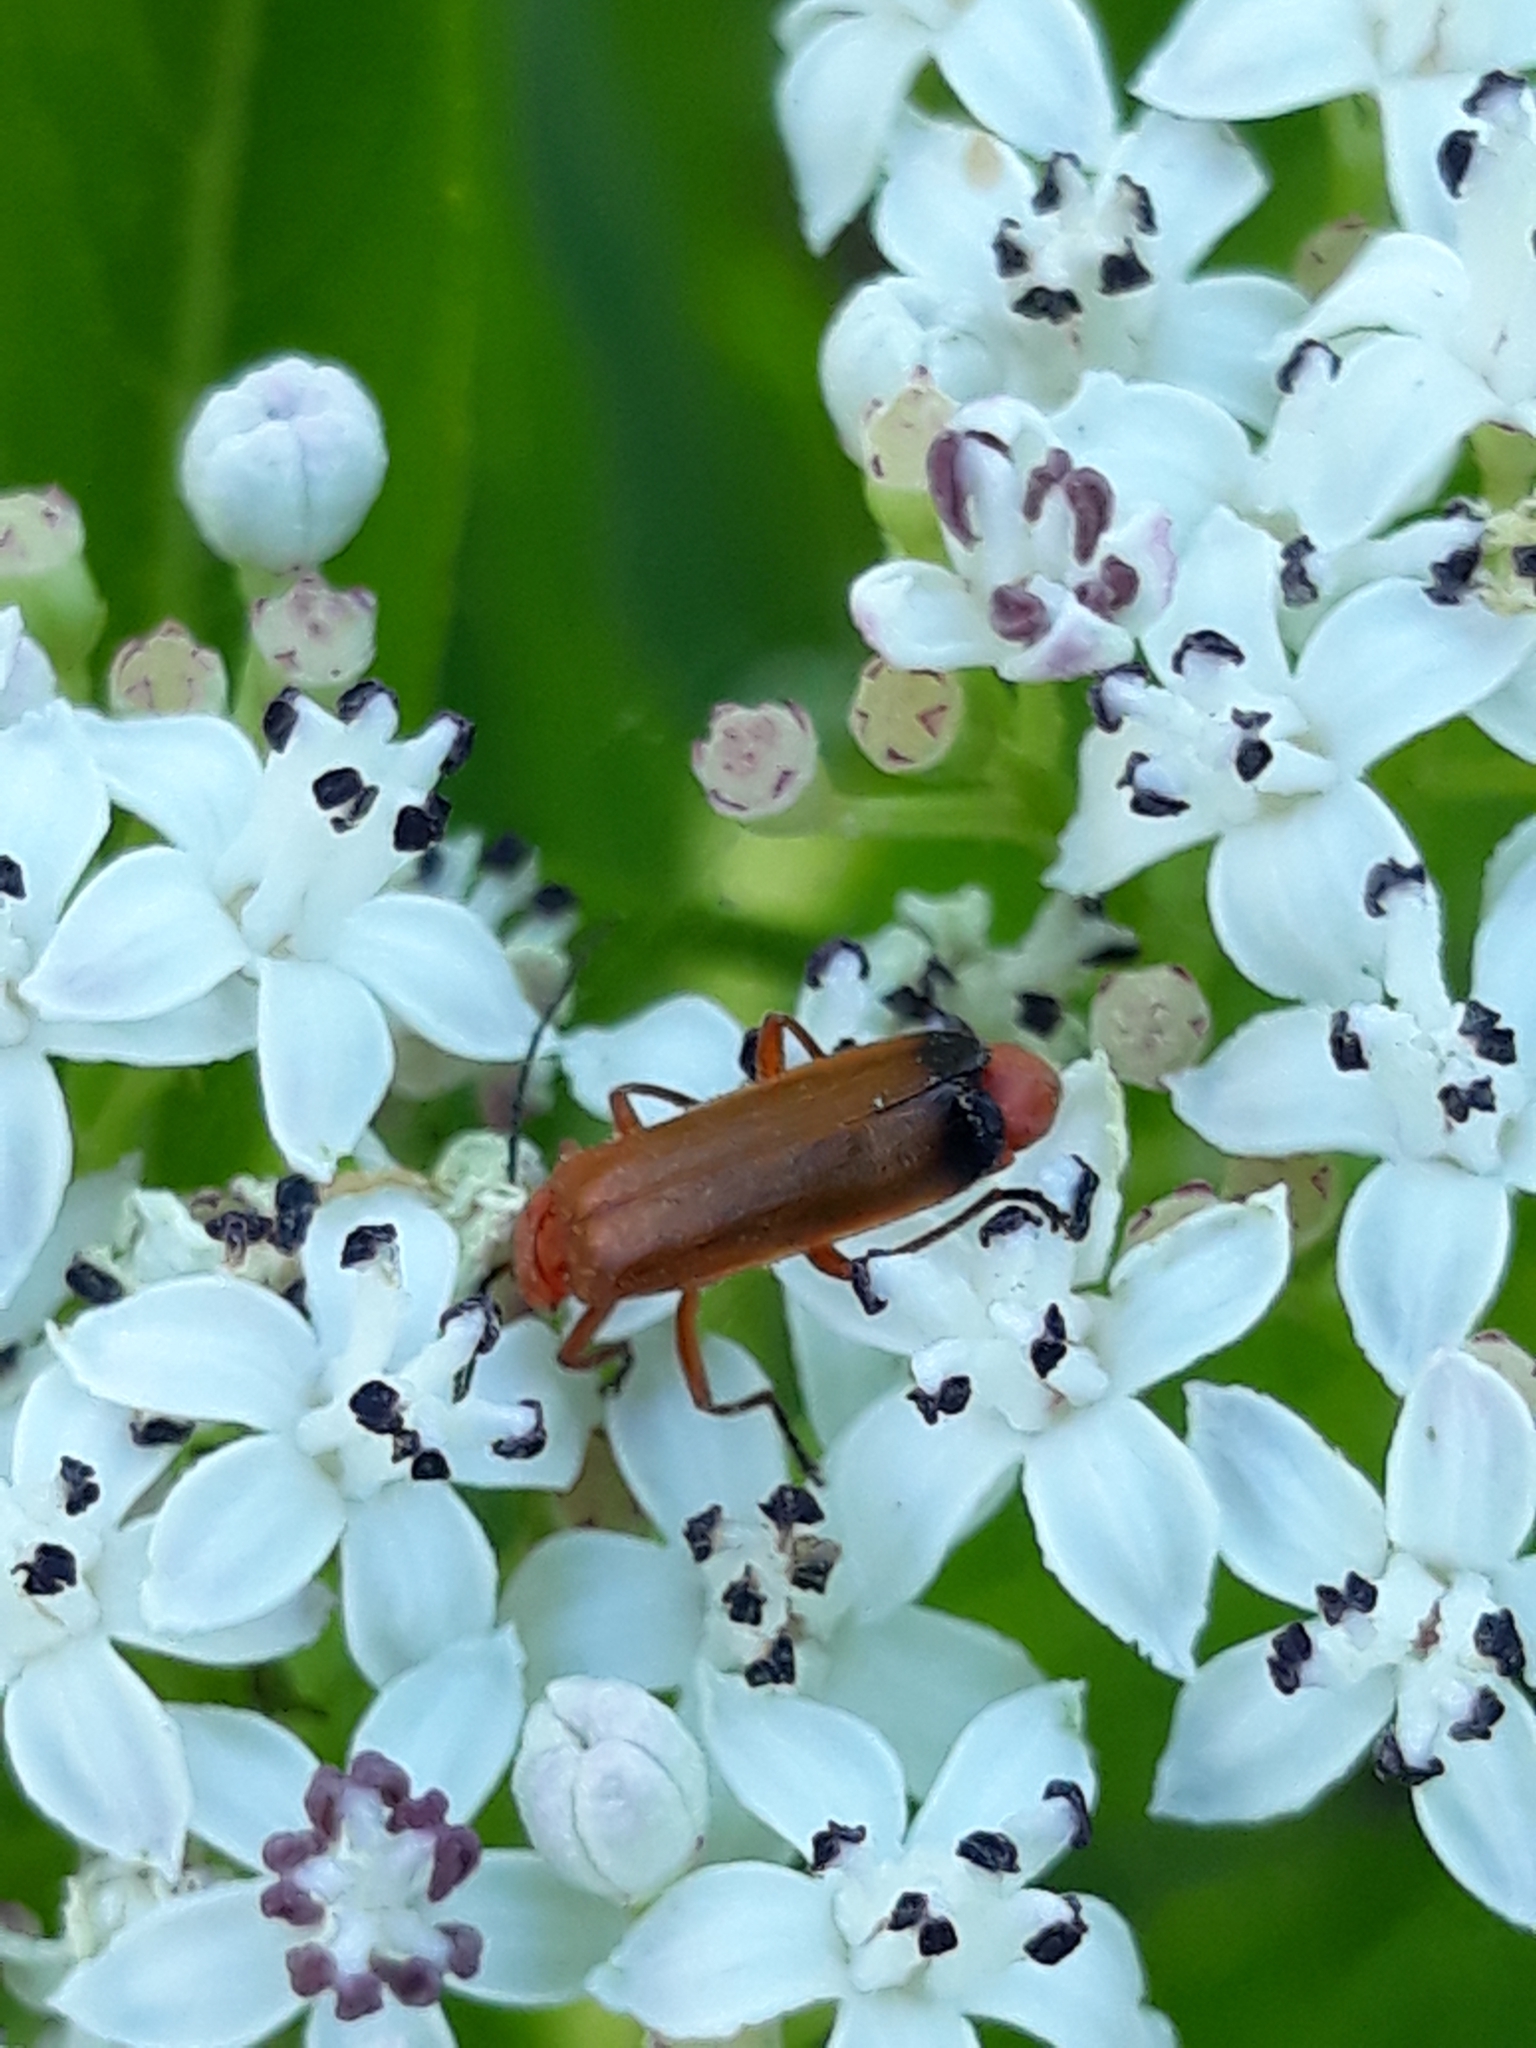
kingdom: Animalia
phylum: Arthropoda
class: Insecta
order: Coleoptera
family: Cantharidae
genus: Rhagonycha
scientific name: Rhagonycha fulva
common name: Common red soldier beetle
